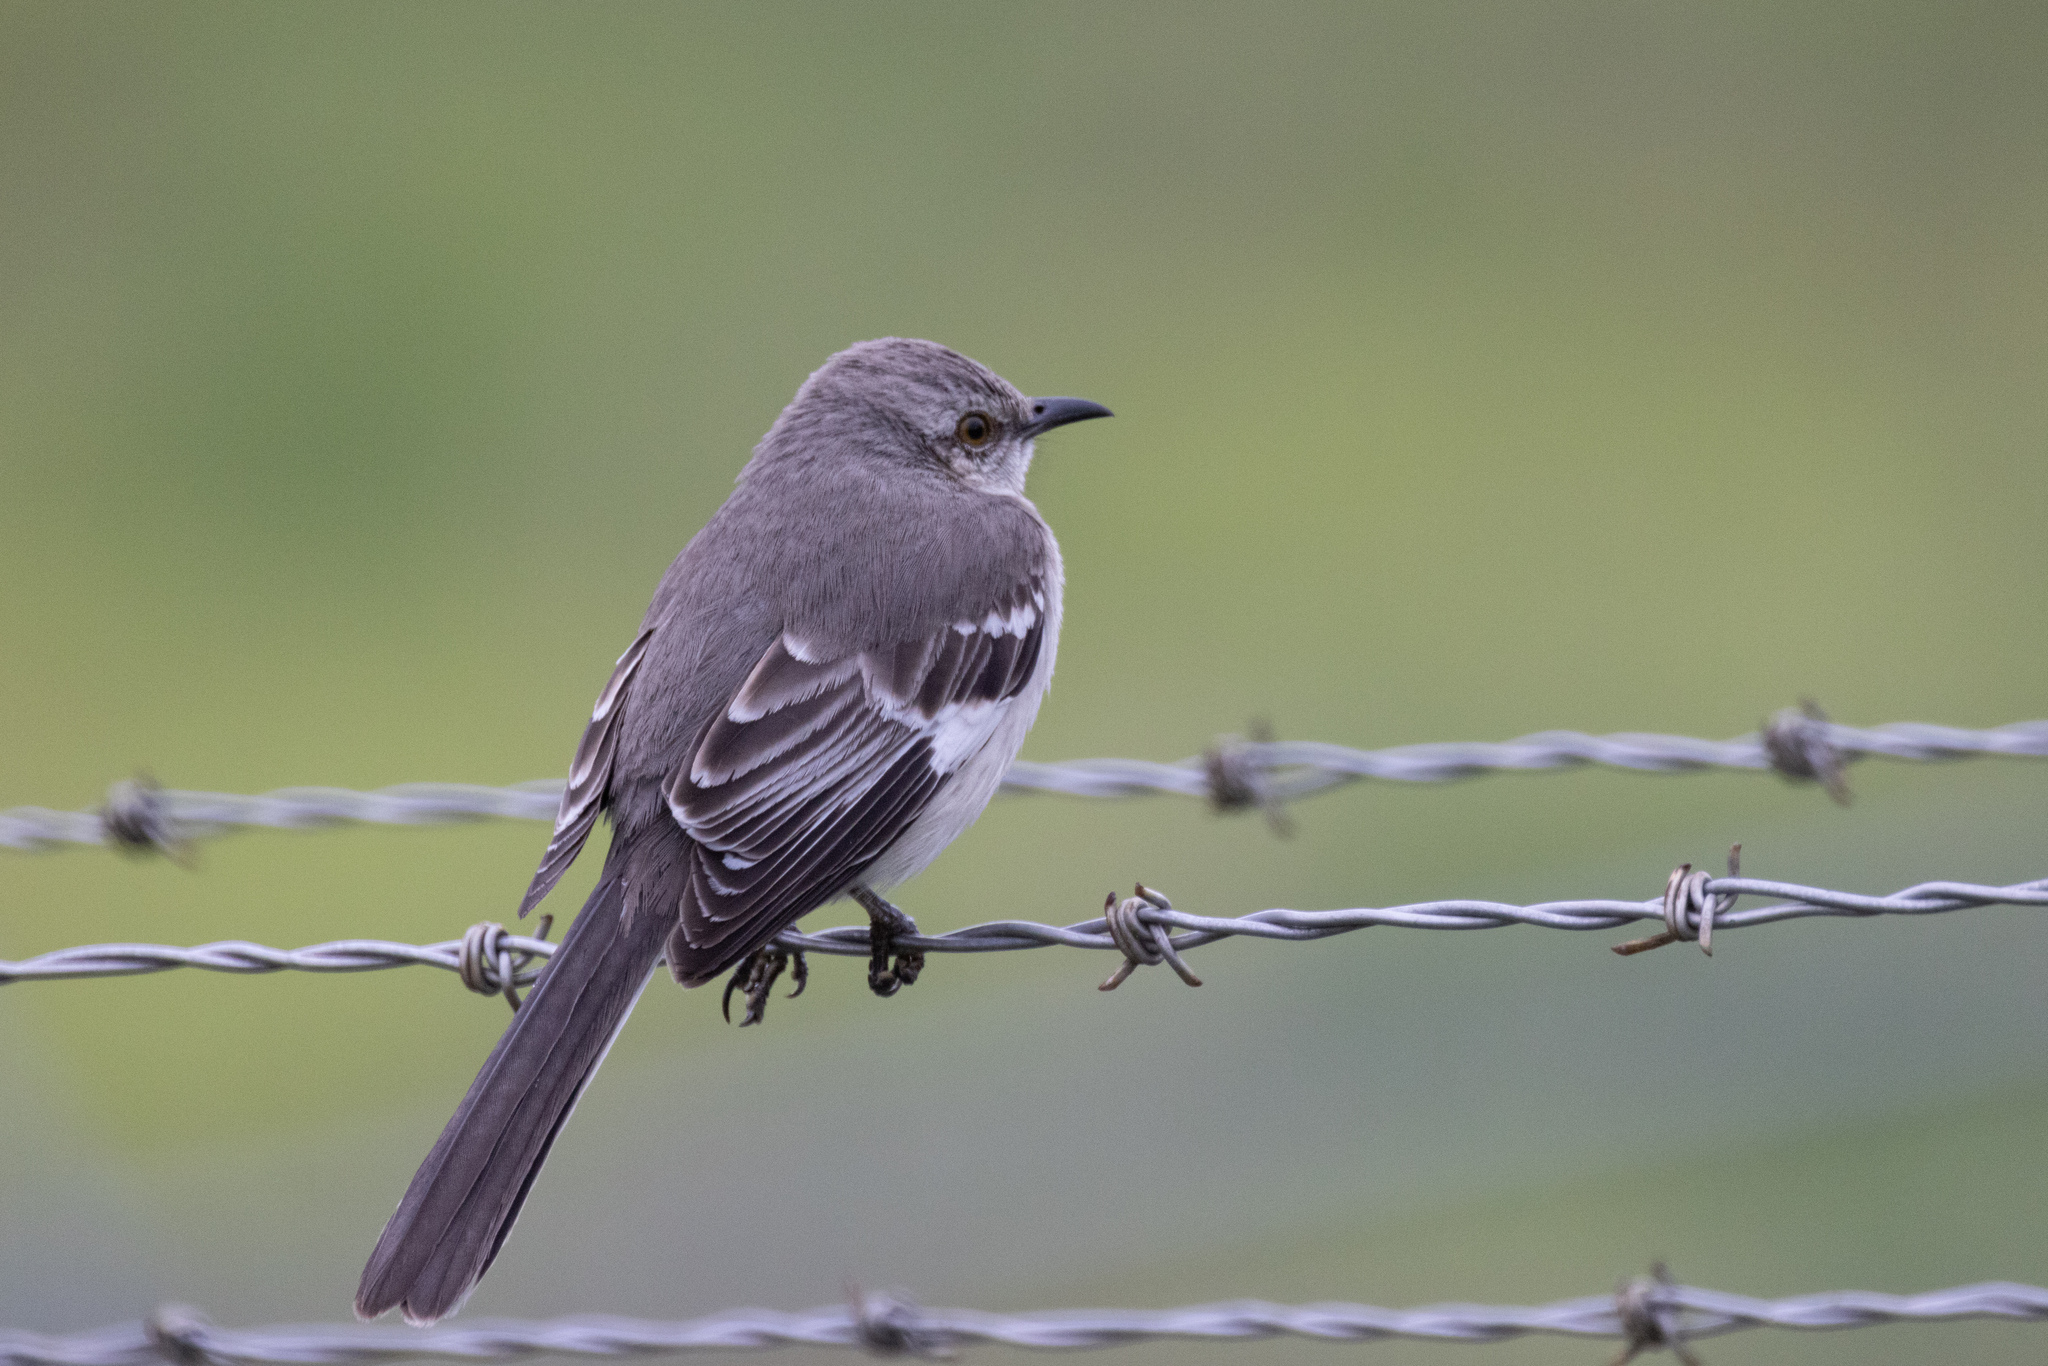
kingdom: Animalia
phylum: Chordata
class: Aves
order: Passeriformes
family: Mimidae
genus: Mimus
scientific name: Mimus polyglottos
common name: Northern mockingbird
